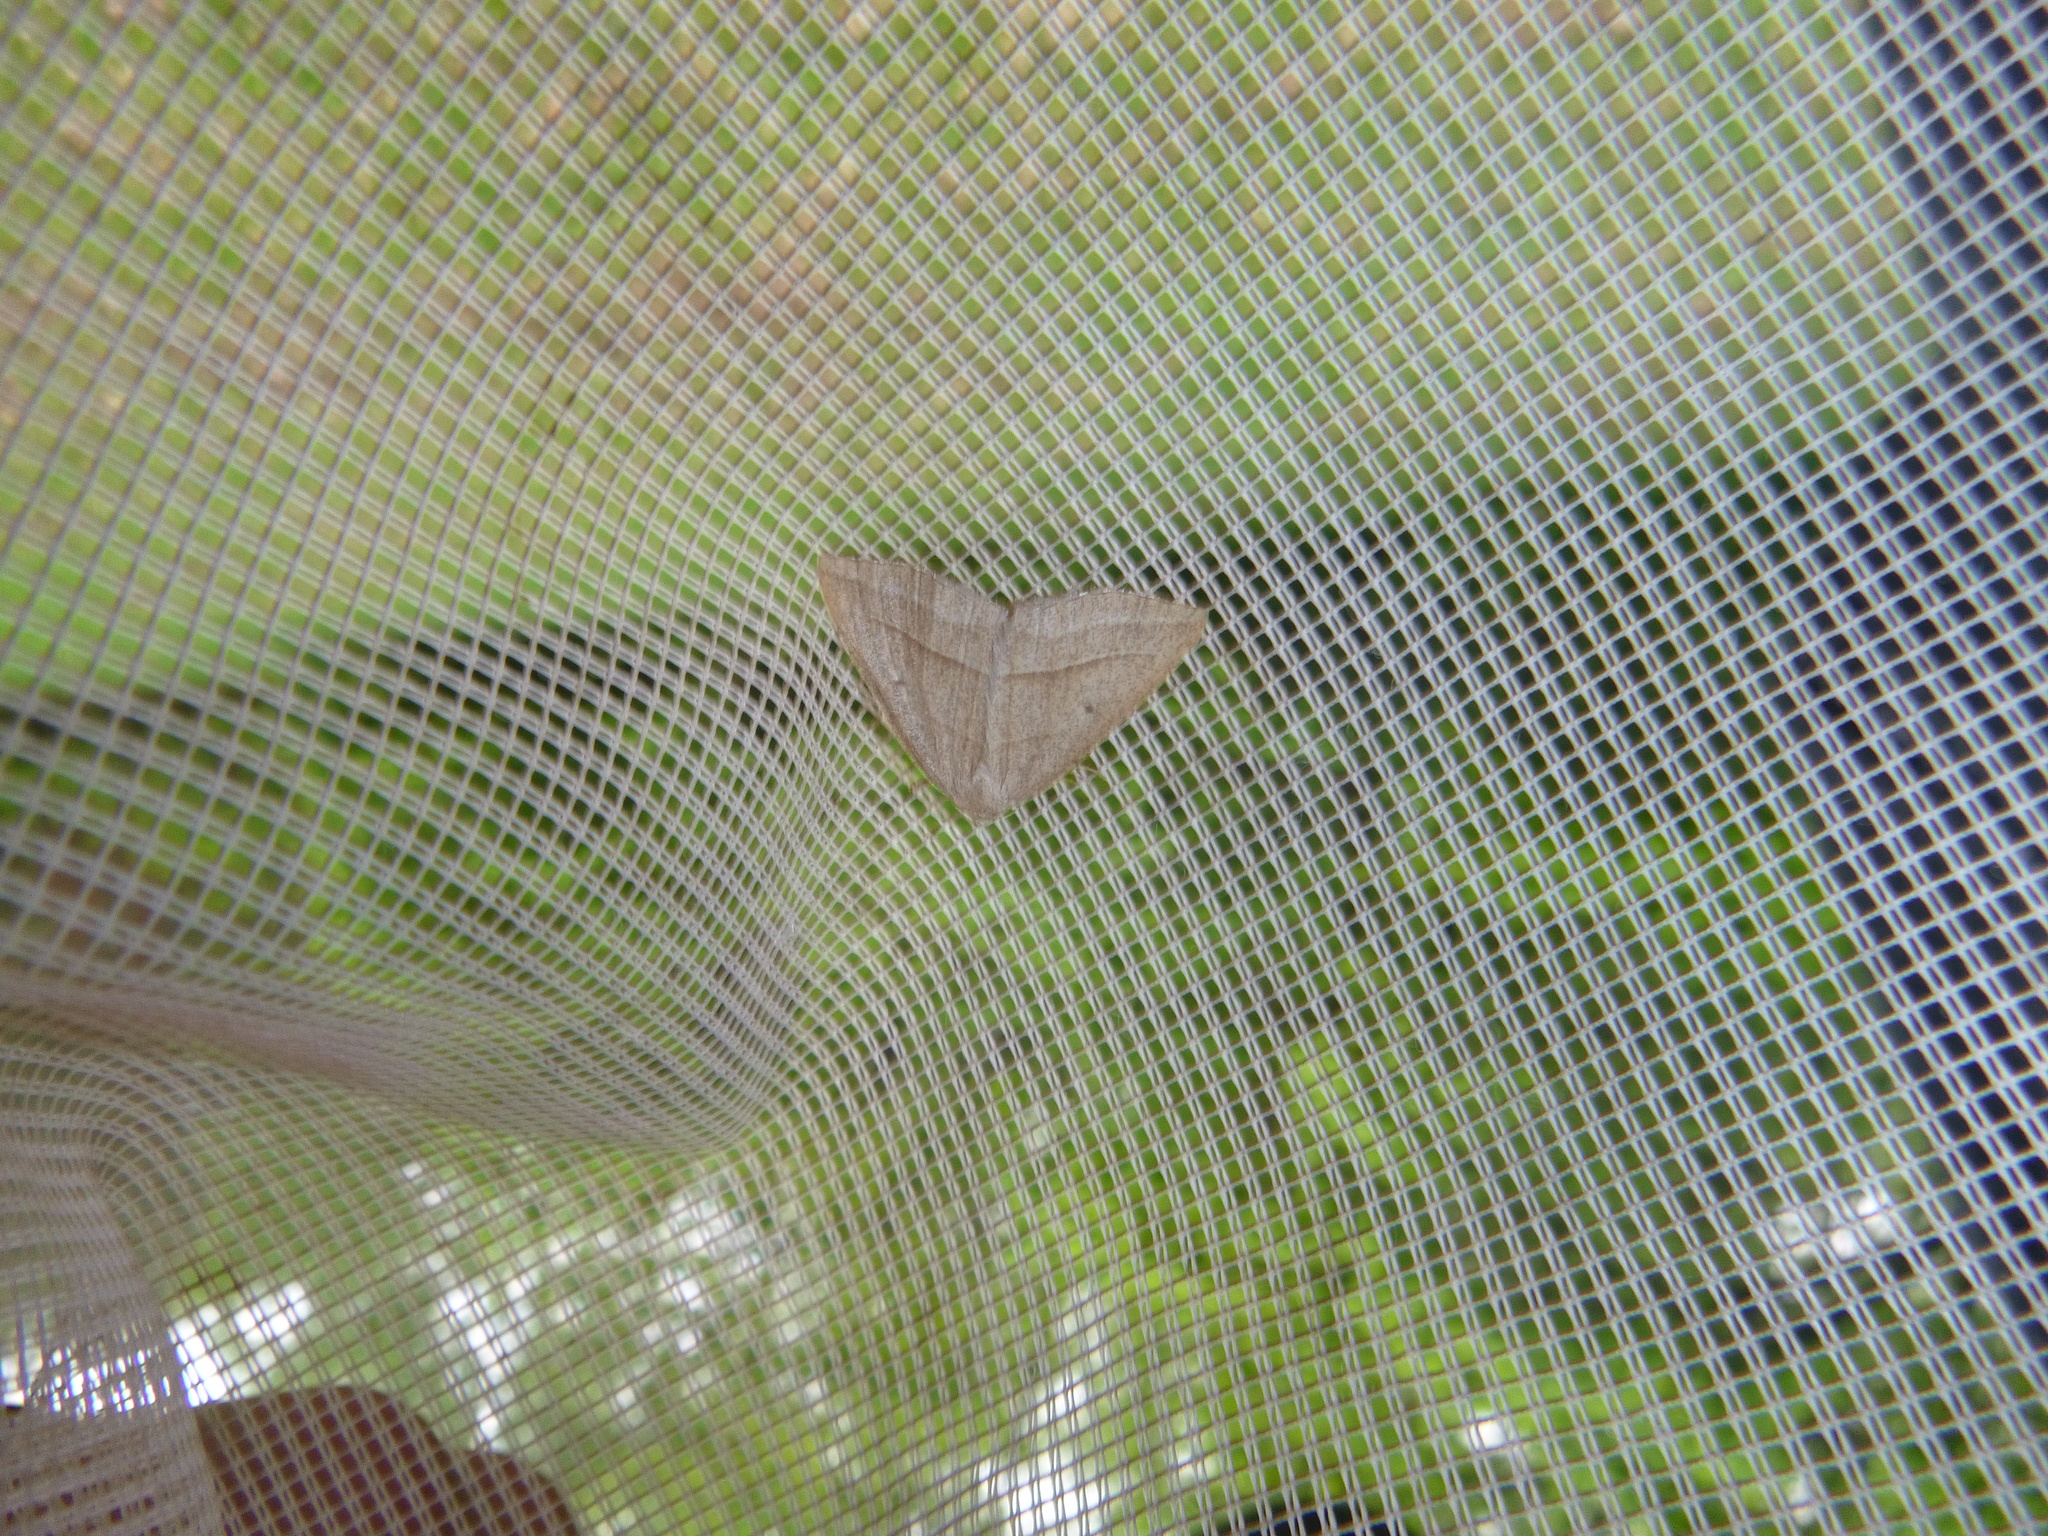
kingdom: Animalia
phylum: Arthropoda
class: Insecta
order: Lepidoptera
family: Pterophoridae
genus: Pterophorus
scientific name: Pterophorus Petrophora chlorosata
